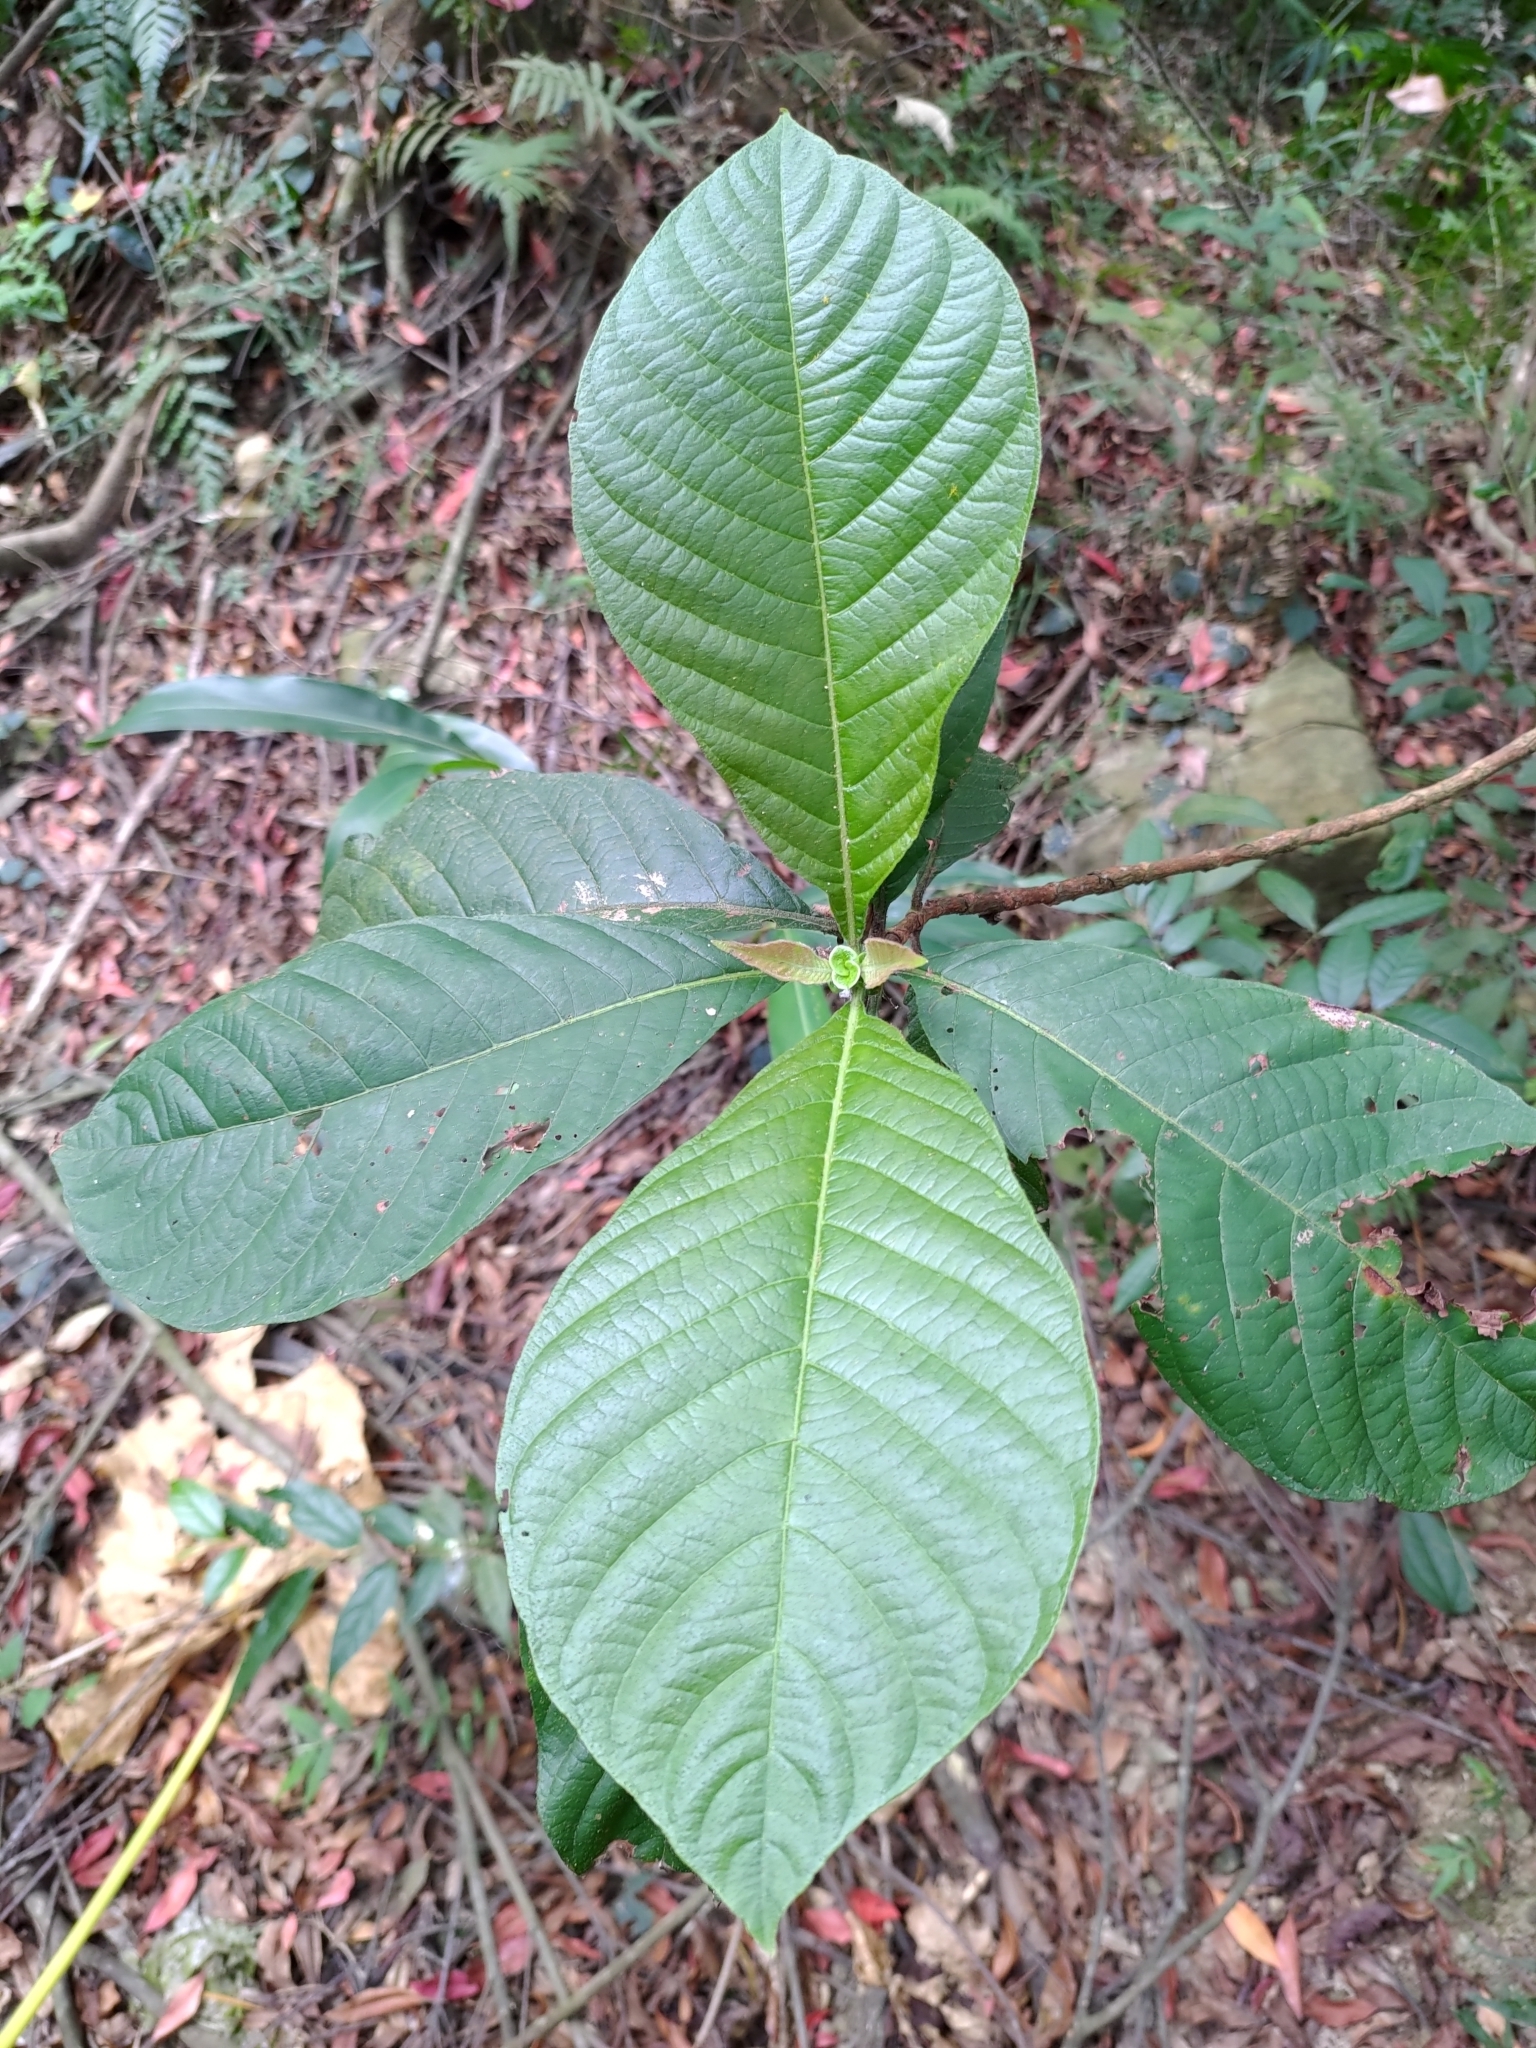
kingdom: Plantae
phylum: Tracheophyta
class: Magnoliopsida
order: Gentianales
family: Rubiaceae
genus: Wendlandia
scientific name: Wendlandia uvariifolia
